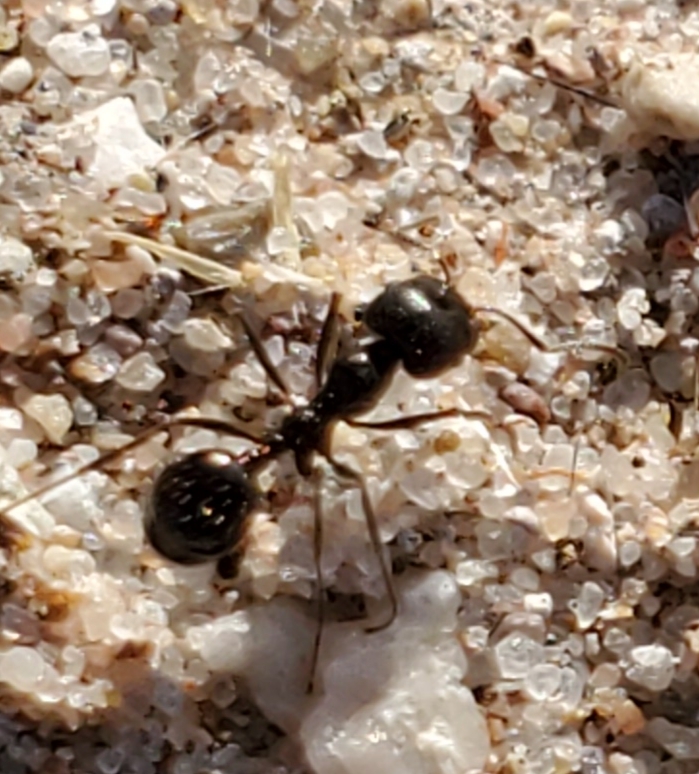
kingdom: Animalia
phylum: Arthropoda
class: Insecta
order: Hymenoptera
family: Formicidae
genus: Messor
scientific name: Messor pergandei
